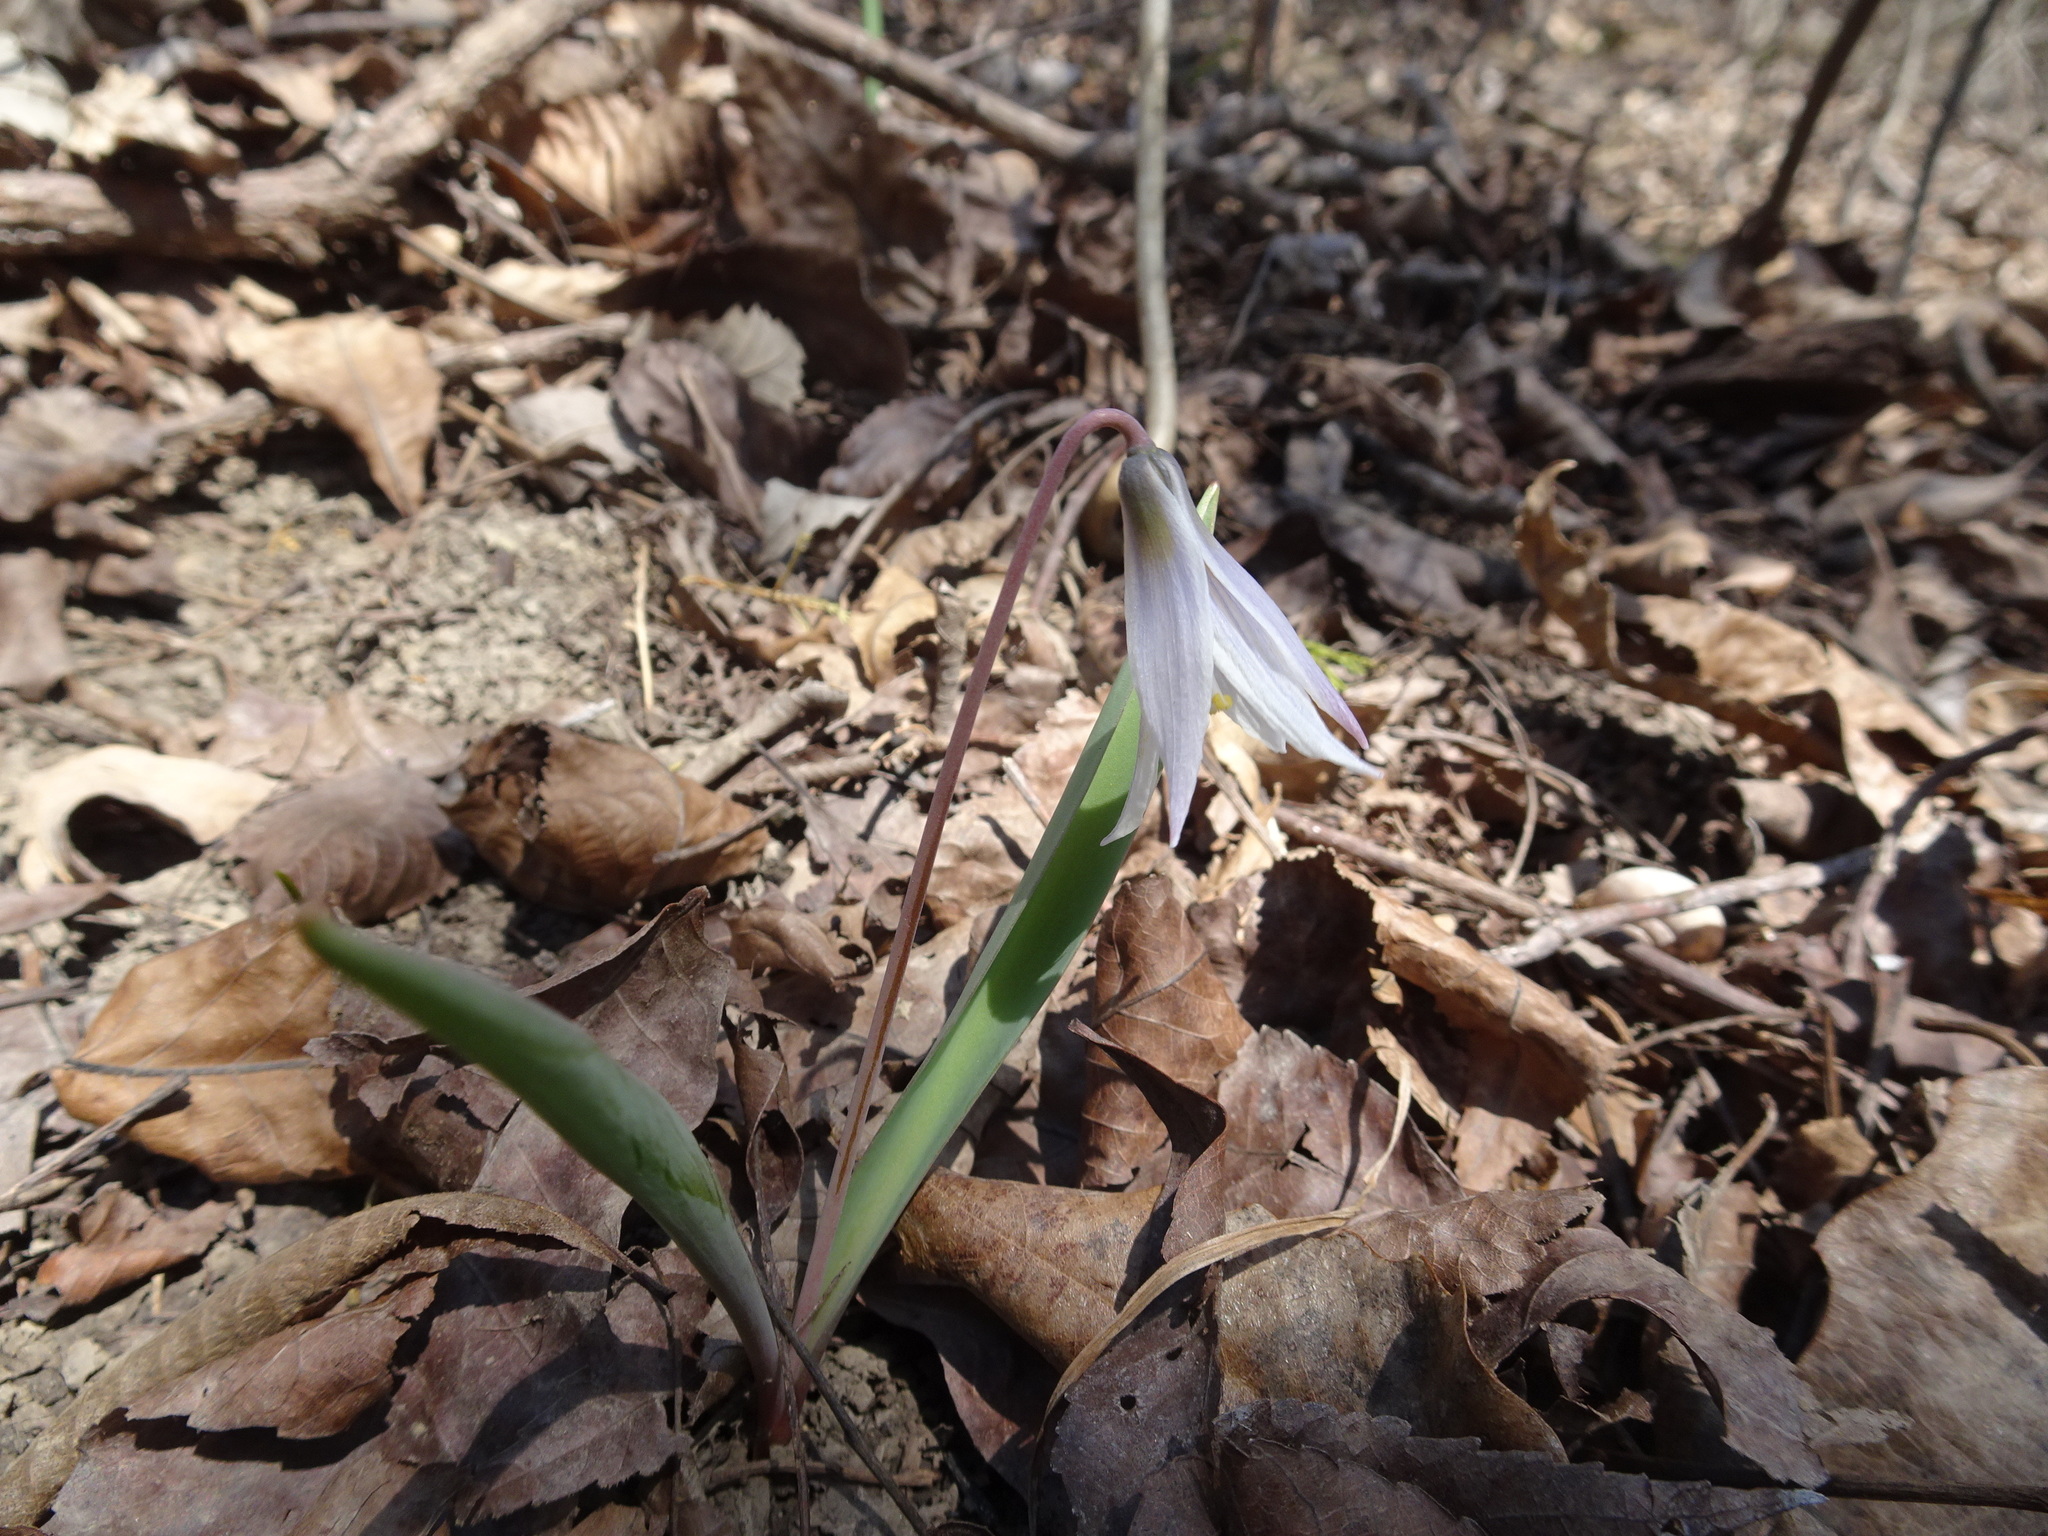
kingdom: Plantae
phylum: Tracheophyta
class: Liliopsida
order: Liliales
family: Liliaceae
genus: Erythronium
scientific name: Erythronium mesochoreum
